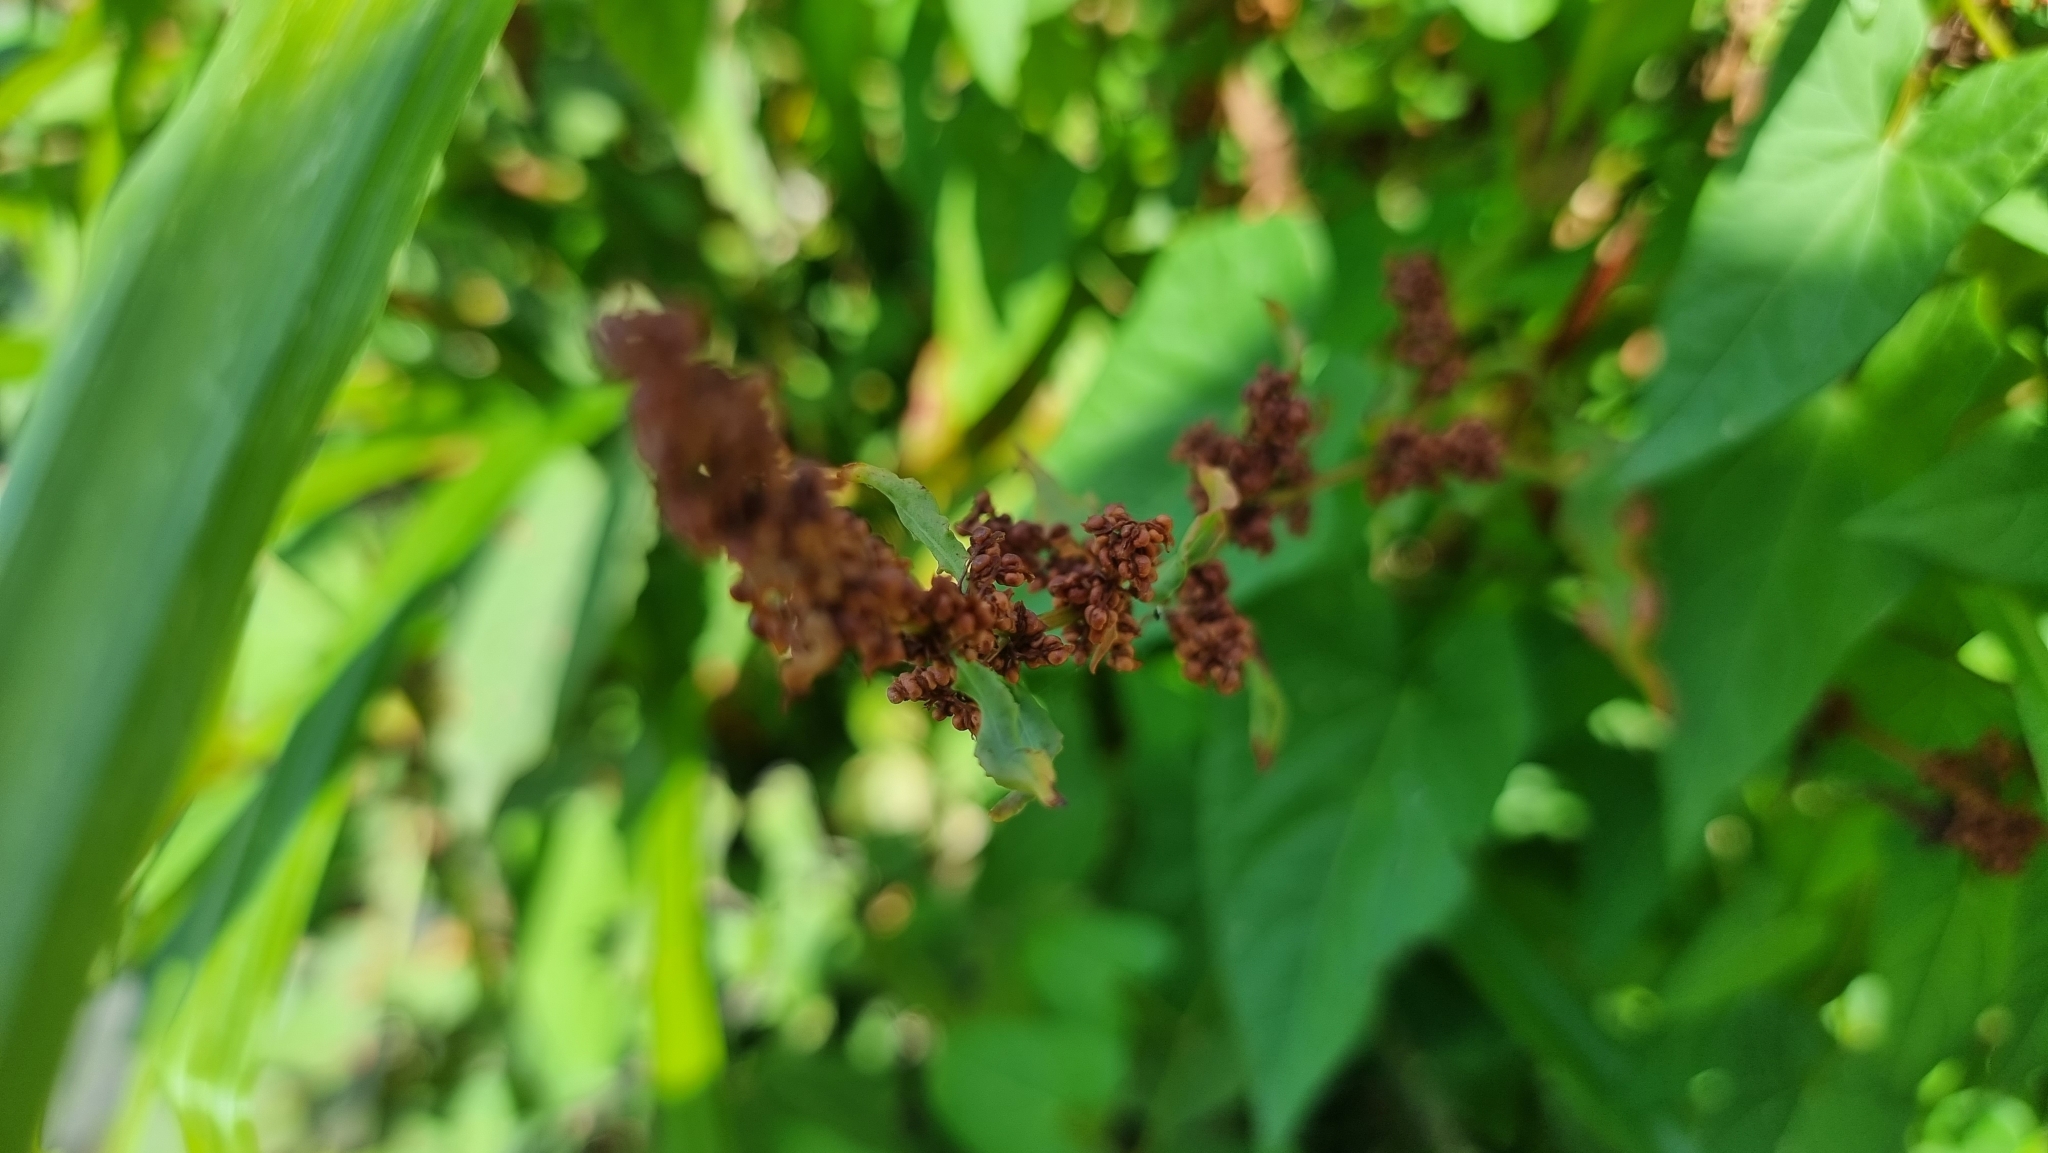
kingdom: Plantae
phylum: Tracheophyta
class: Magnoliopsida
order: Caryophyllales
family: Polygonaceae
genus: Rumex
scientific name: Rumex conglomeratus
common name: Clustered dock
